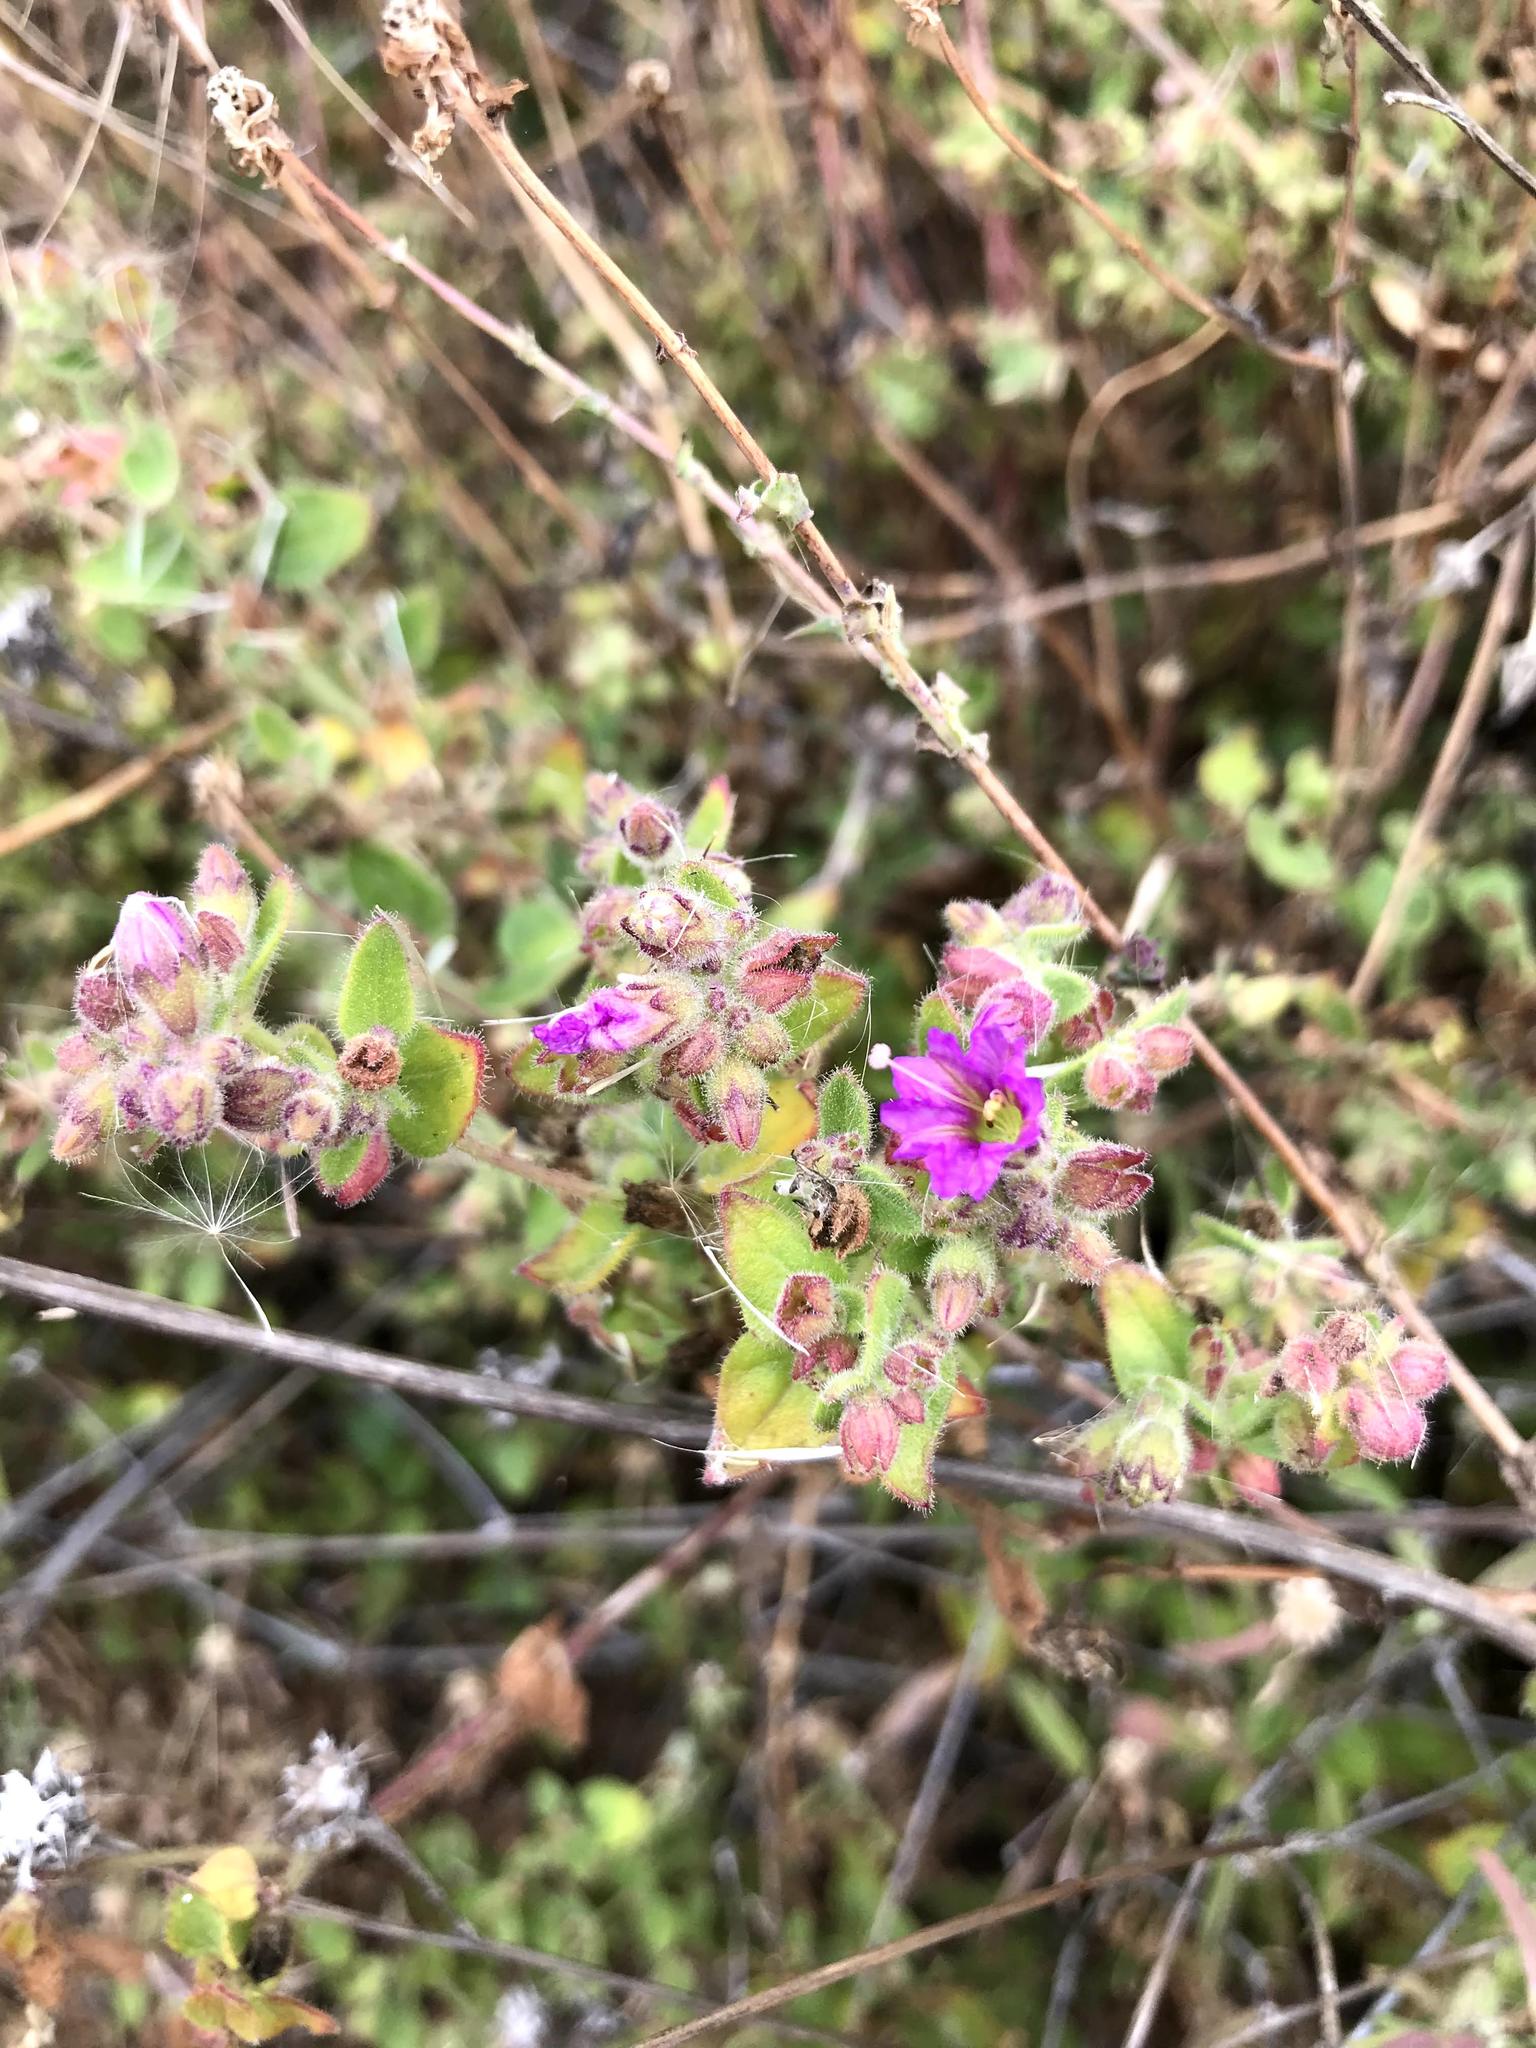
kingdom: Plantae
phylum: Tracheophyta
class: Magnoliopsida
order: Caryophyllales
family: Nyctaginaceae
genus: Mirabilis
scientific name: Mirabilis laevis
